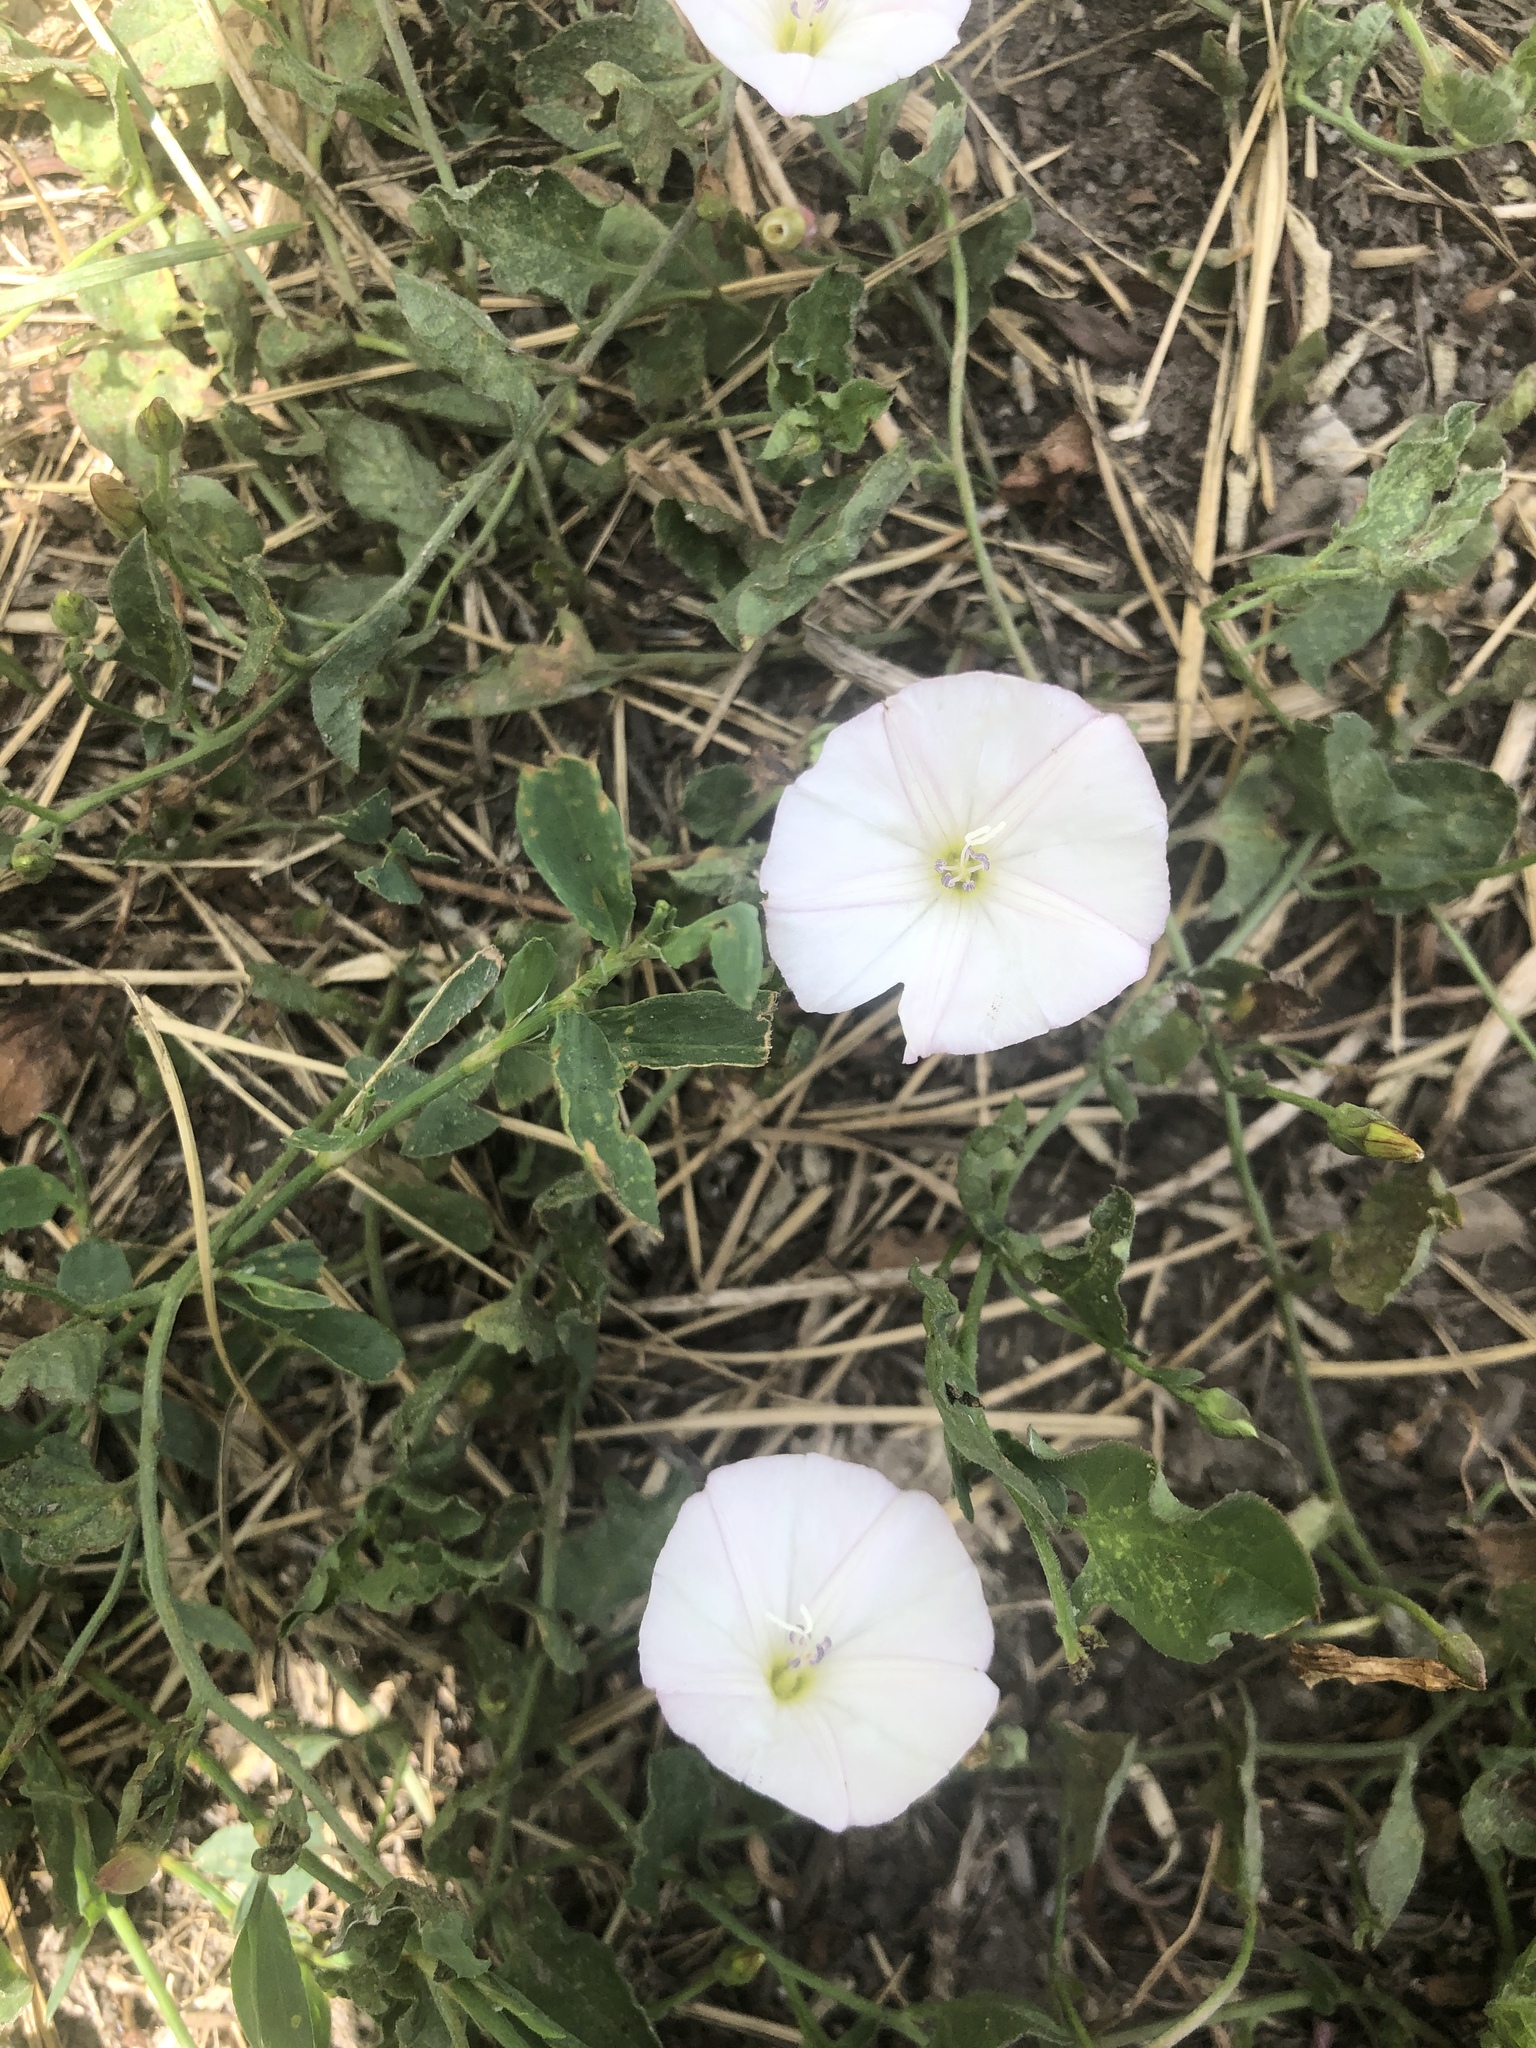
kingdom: Plantae
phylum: Tracheophyta
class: Magnoliopsida
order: Solanales
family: Convolvulaceae
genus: Convolvulus
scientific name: Convolvulus arvensis
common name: Field bindweed
